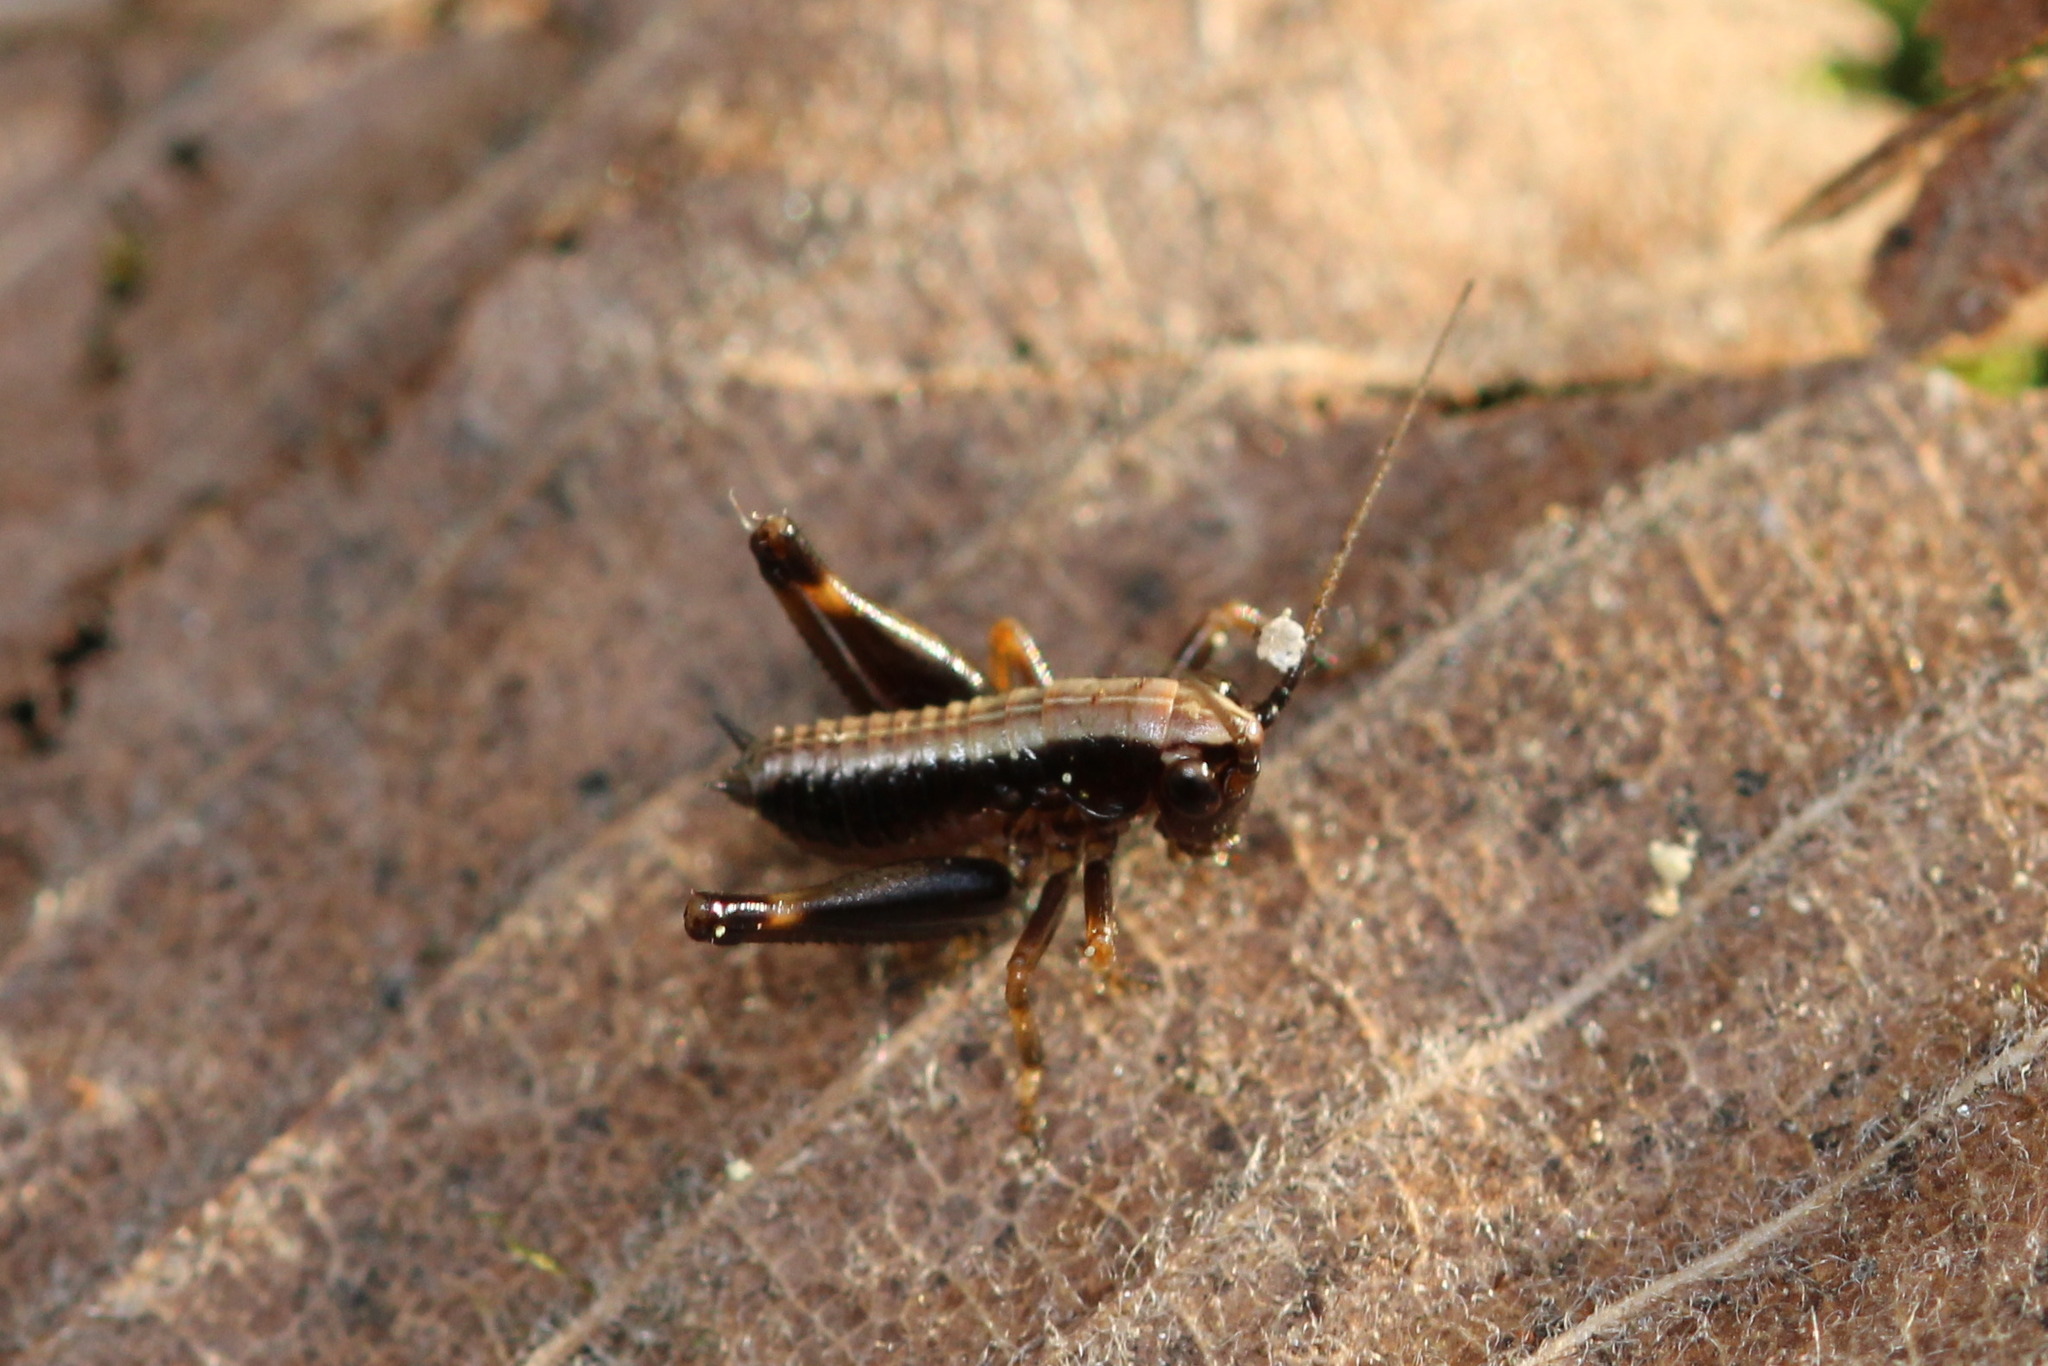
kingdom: Animalia
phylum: Arthropoda
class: Insecta
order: Orthoptera
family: Tettigoniidae
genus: Pholidoptera
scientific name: Pholidoptera griseoaptera
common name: Dark bush-cricket
